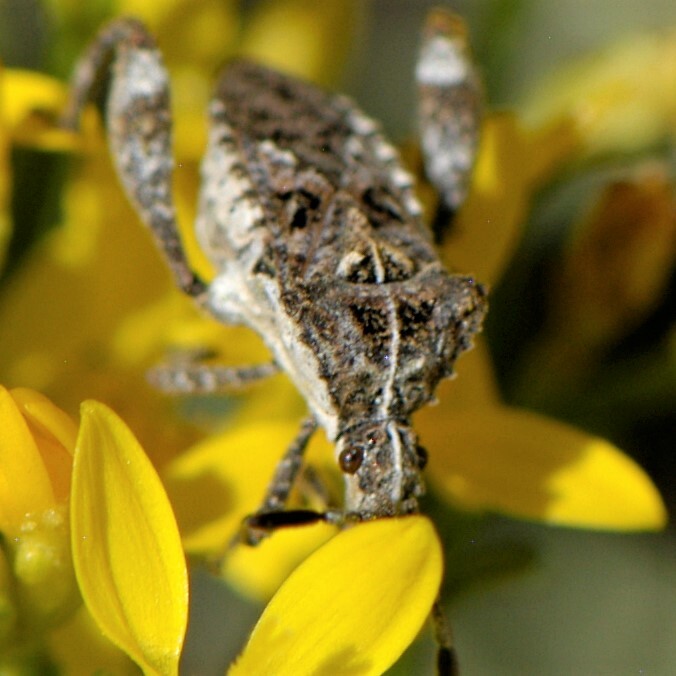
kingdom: Animalia
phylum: Arthropoda
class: Insecta
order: Hemiptera
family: Coreidae
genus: Merocoris
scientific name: Merocoris curtatus
